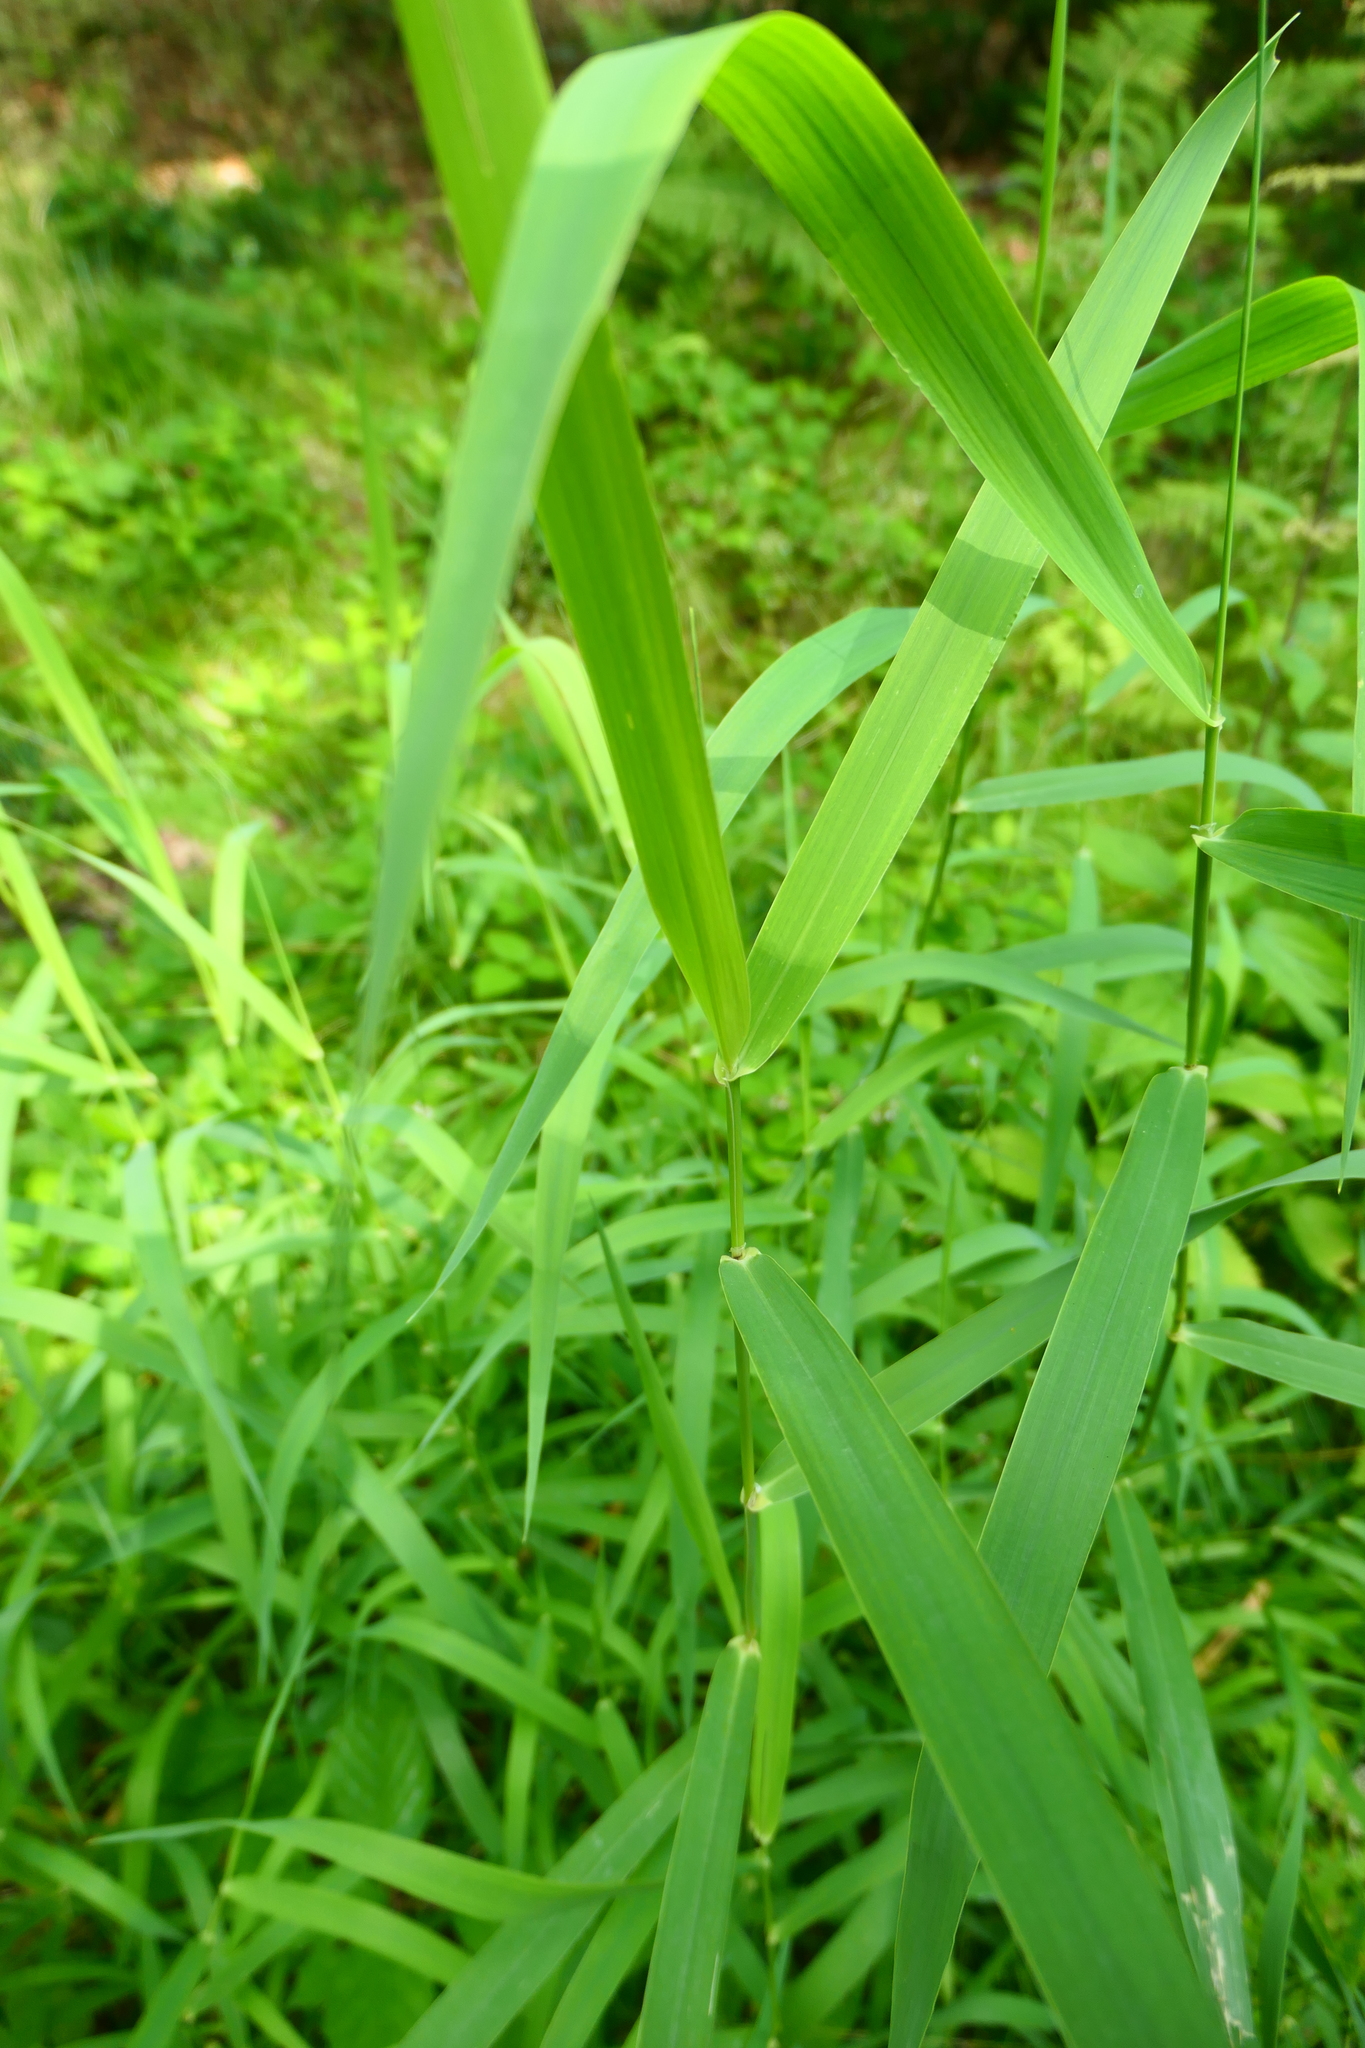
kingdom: Plantae
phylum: Tracheophyta
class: Liliopsida
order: Poales
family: Poaceae
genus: Phalaris
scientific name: Phalaris arundinacea
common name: Reed canary-grass
